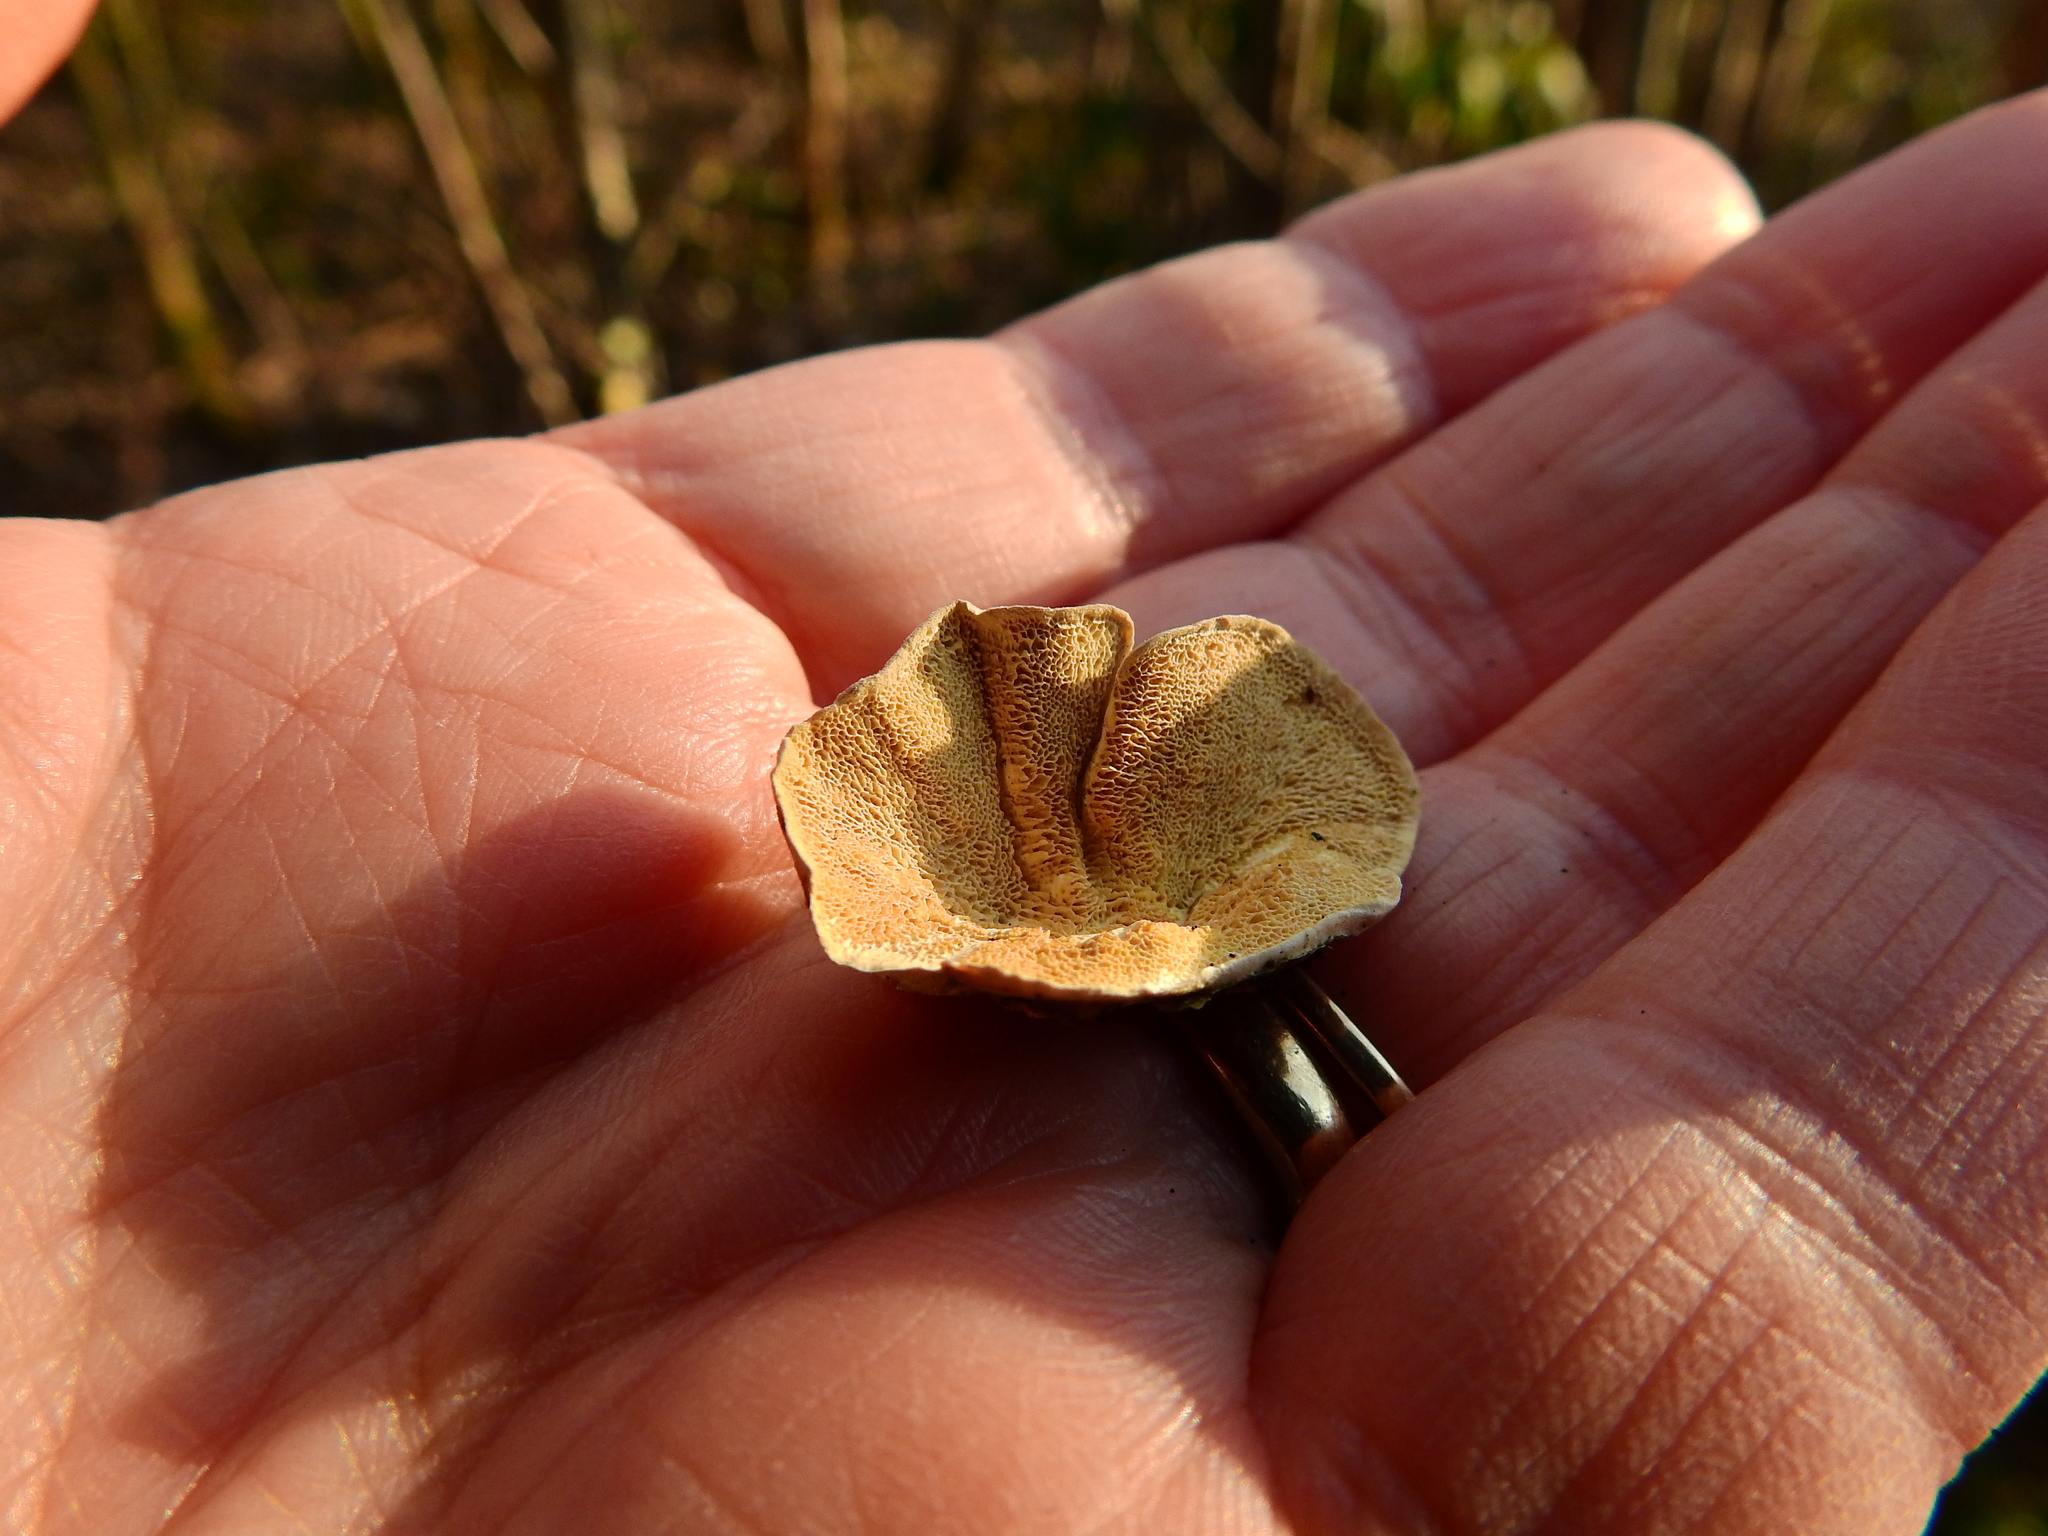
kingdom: Fungi
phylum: Basidiomycota
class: Agaricomycetes
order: Polyporales
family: Polyporaceae
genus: Trametes
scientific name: Trametes versicolor
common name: Turkeytail
